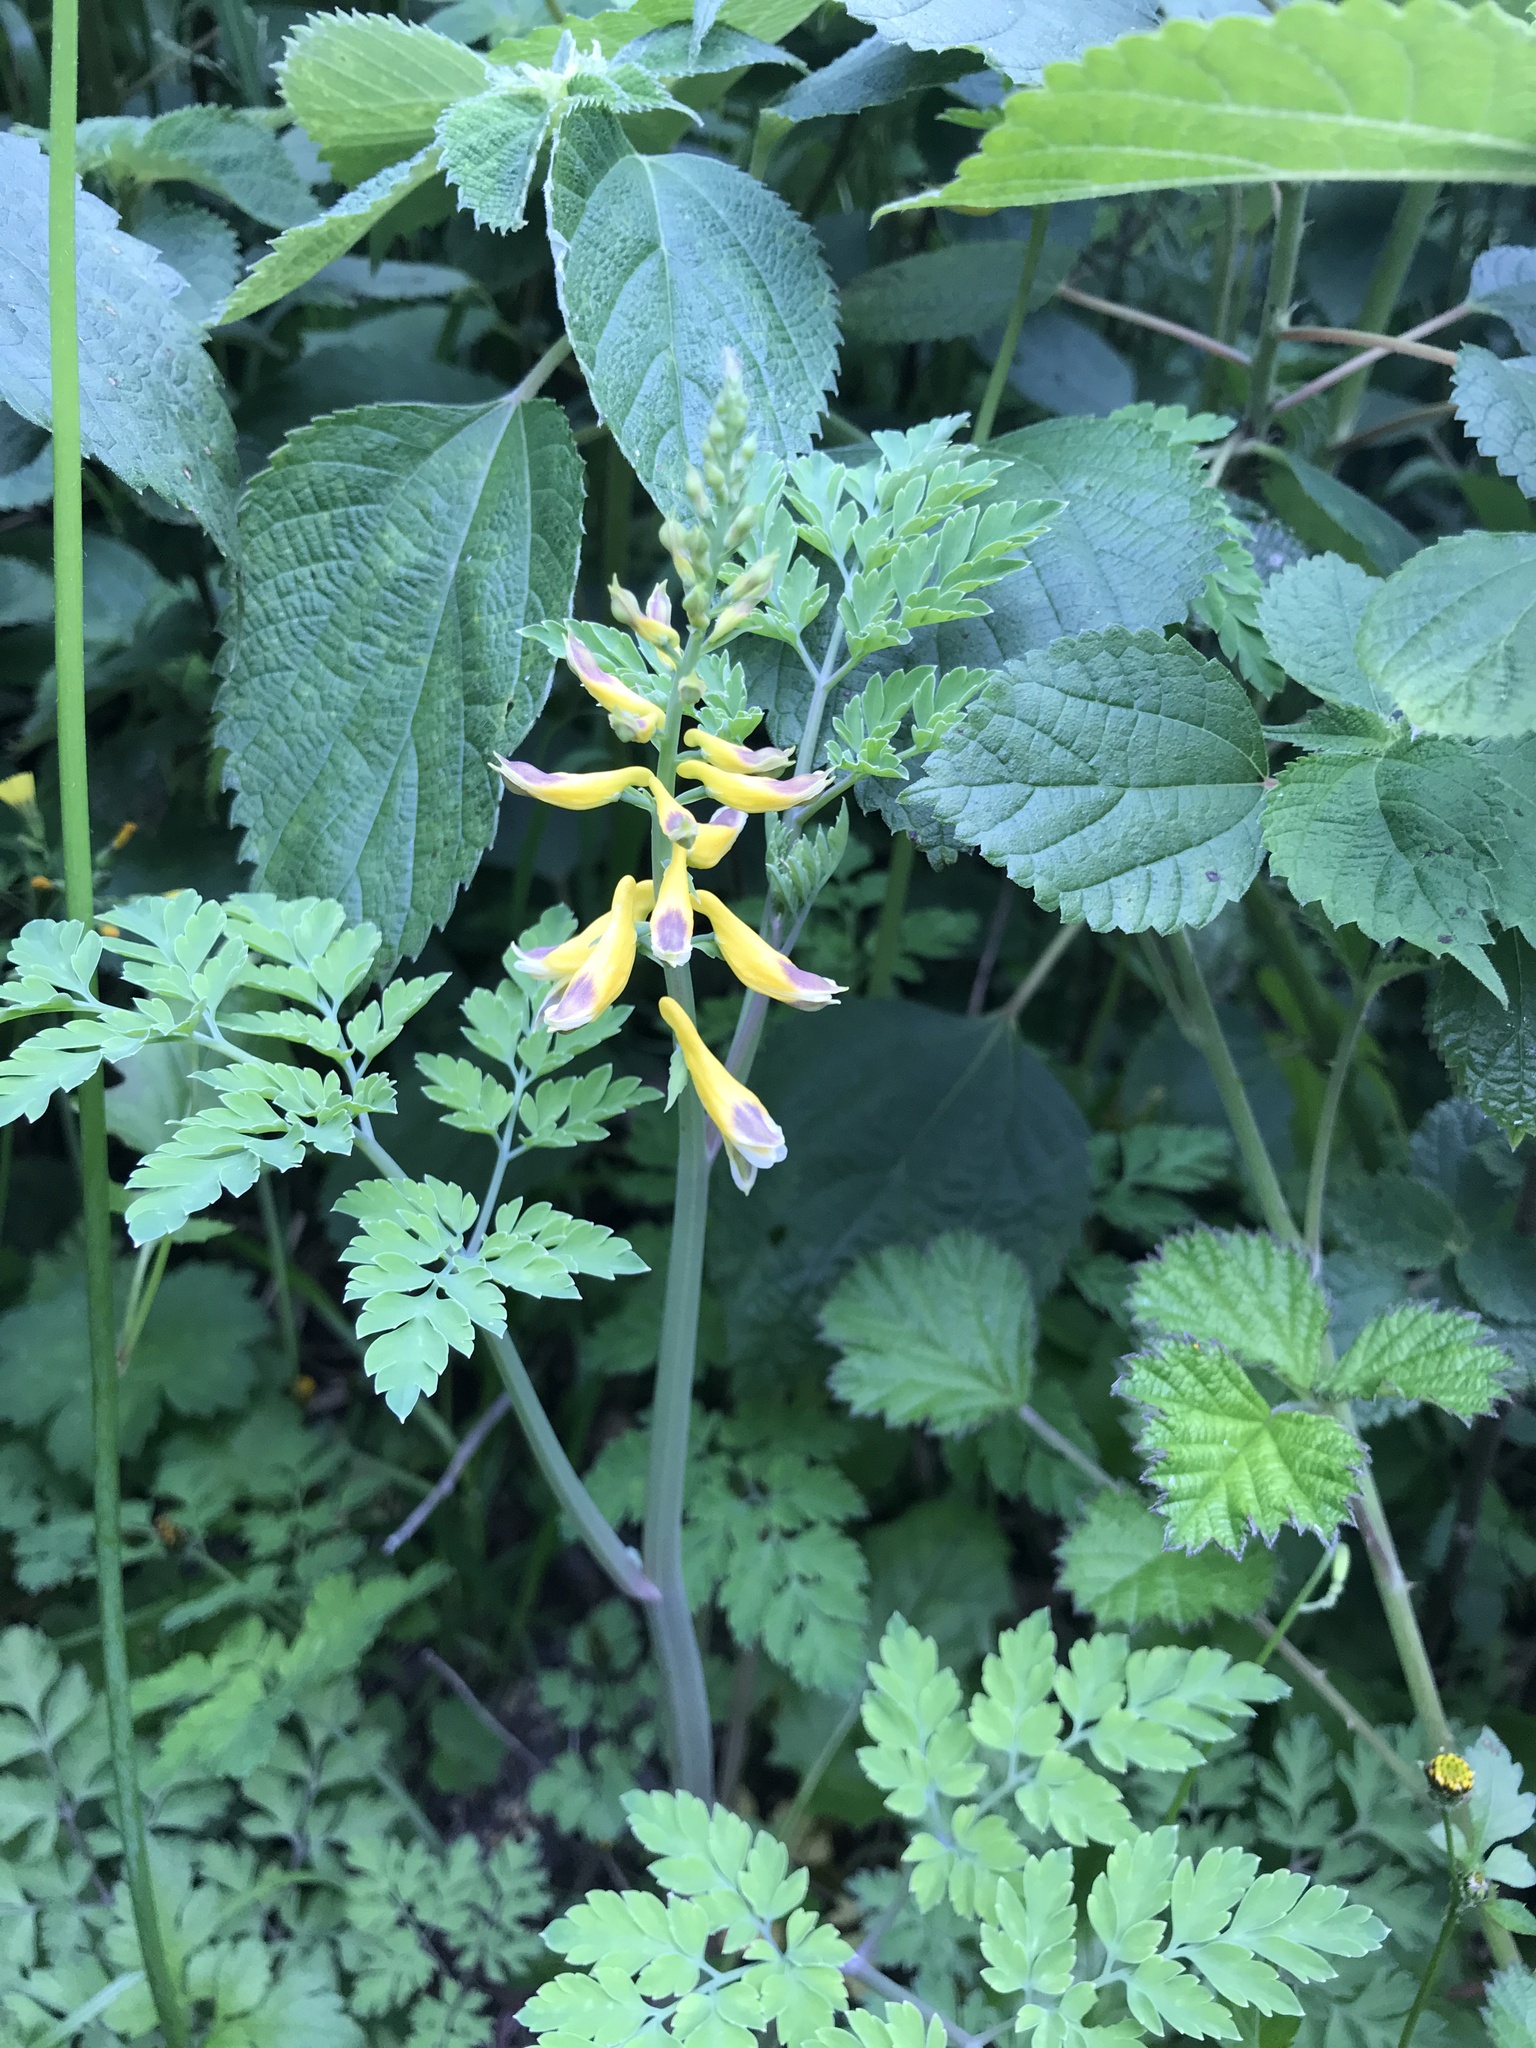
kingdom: Plantae
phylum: Tracheophyta
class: Magnoliopsida
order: Ranunculales
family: Papaveraceae
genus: Corydalis
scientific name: Corydalis heterocarpa
